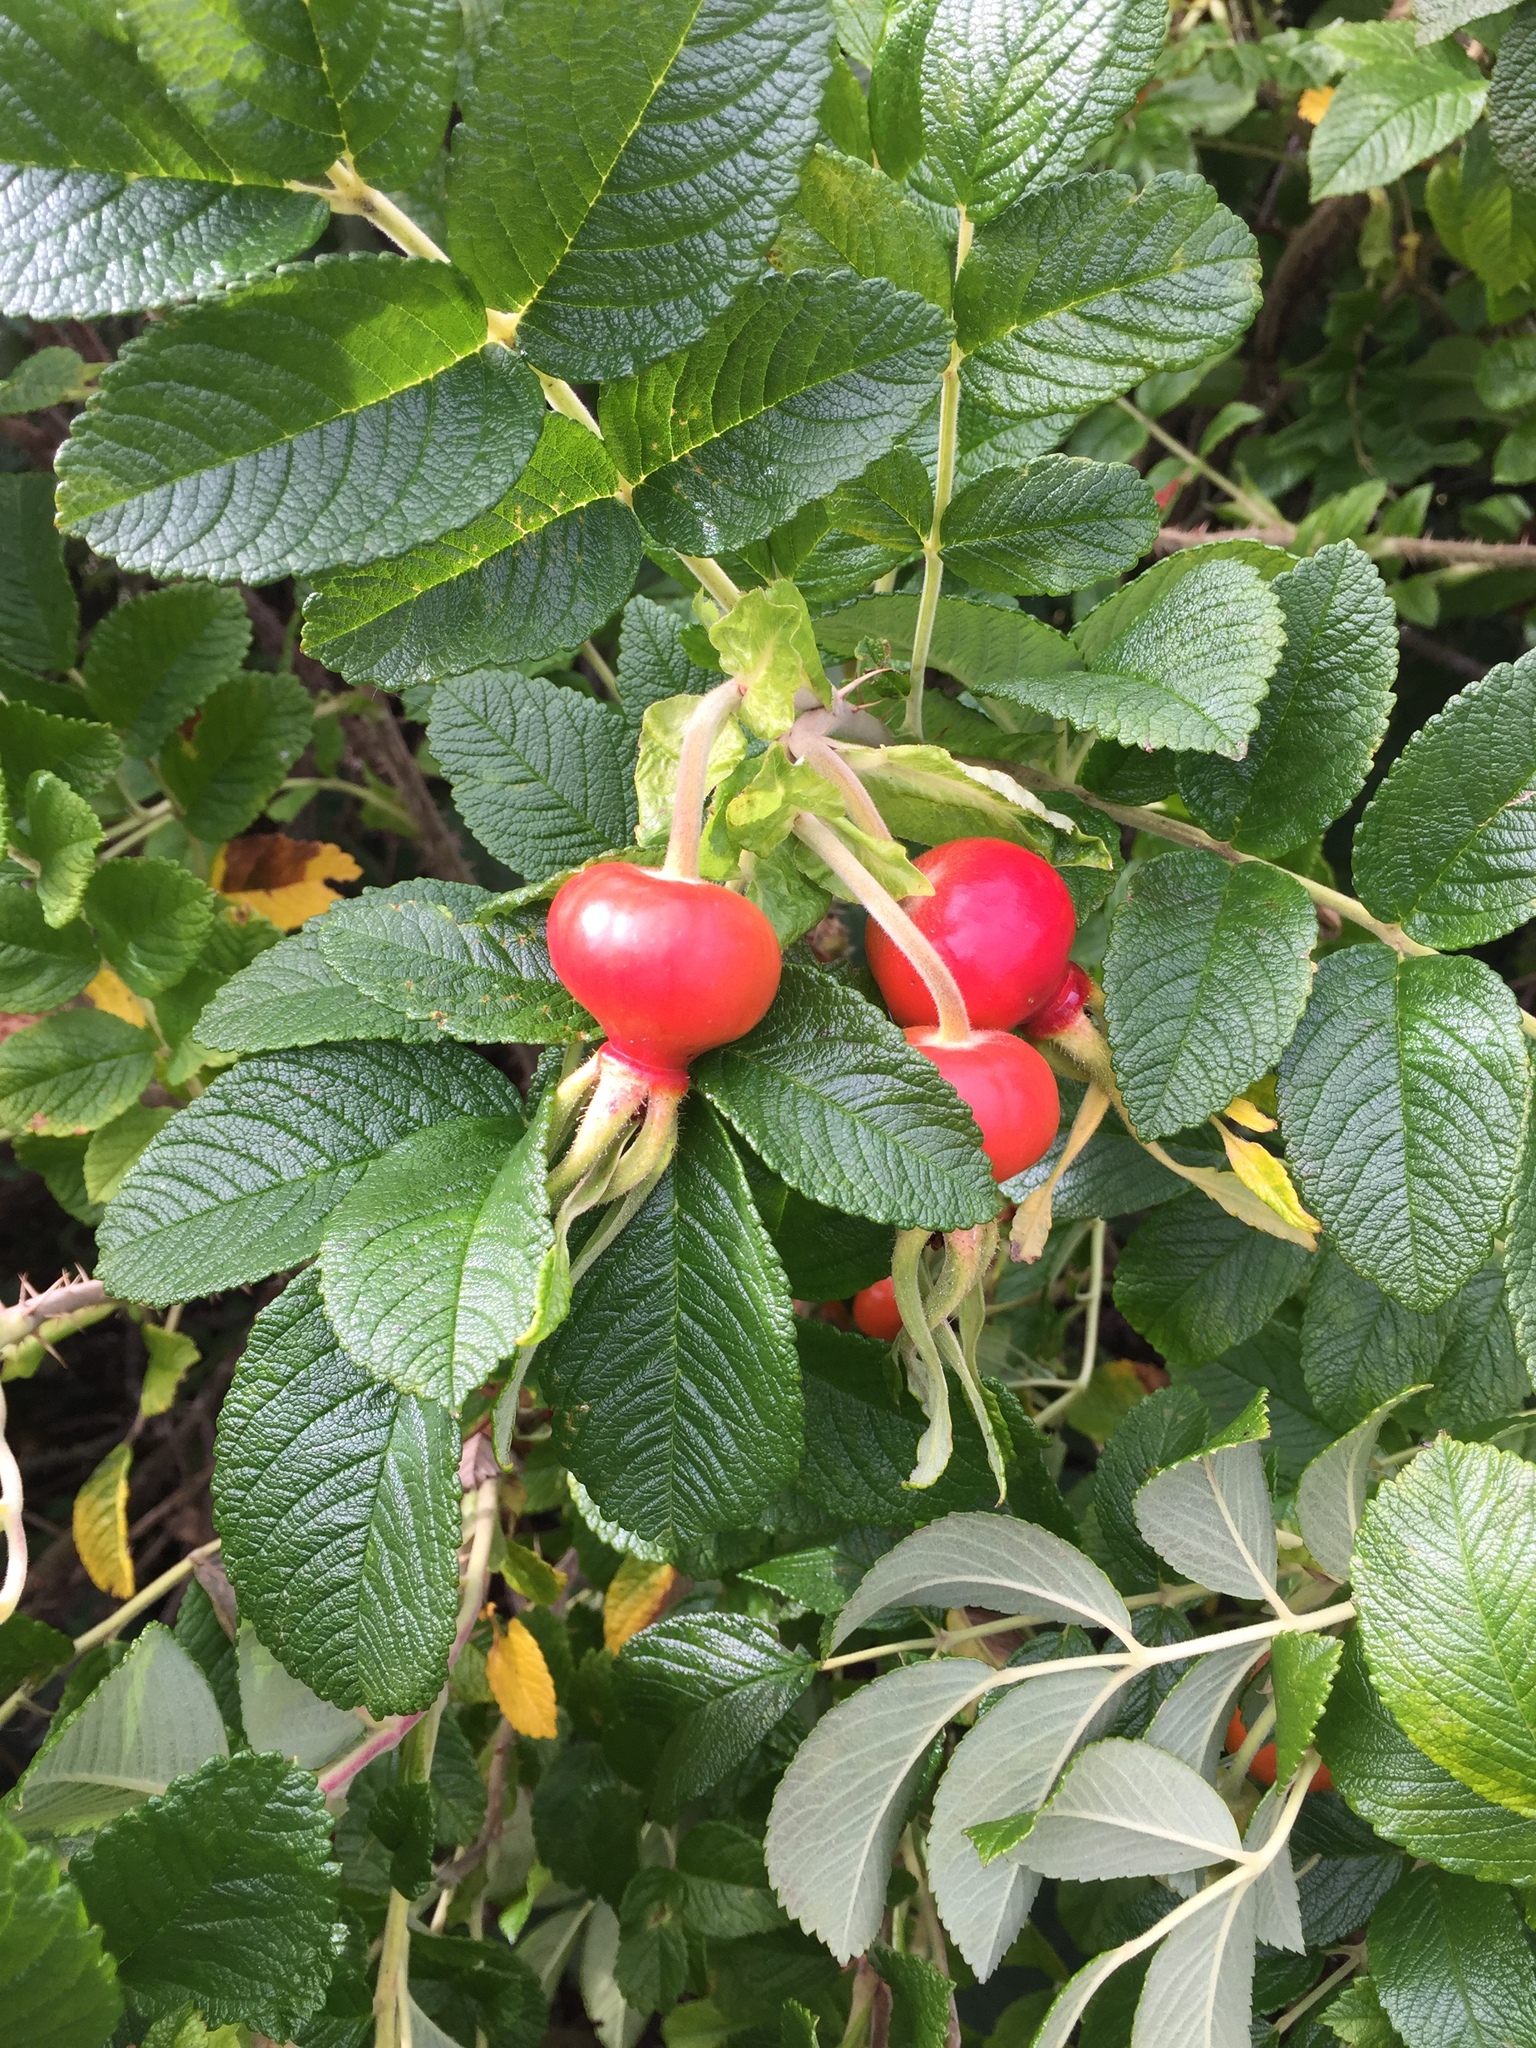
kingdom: Plantae
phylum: Tracheophyta
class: Magnoliopsida
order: Rosales
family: Rosaceae
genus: Rosa
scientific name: Rosa rugosa
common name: Japanese rose
